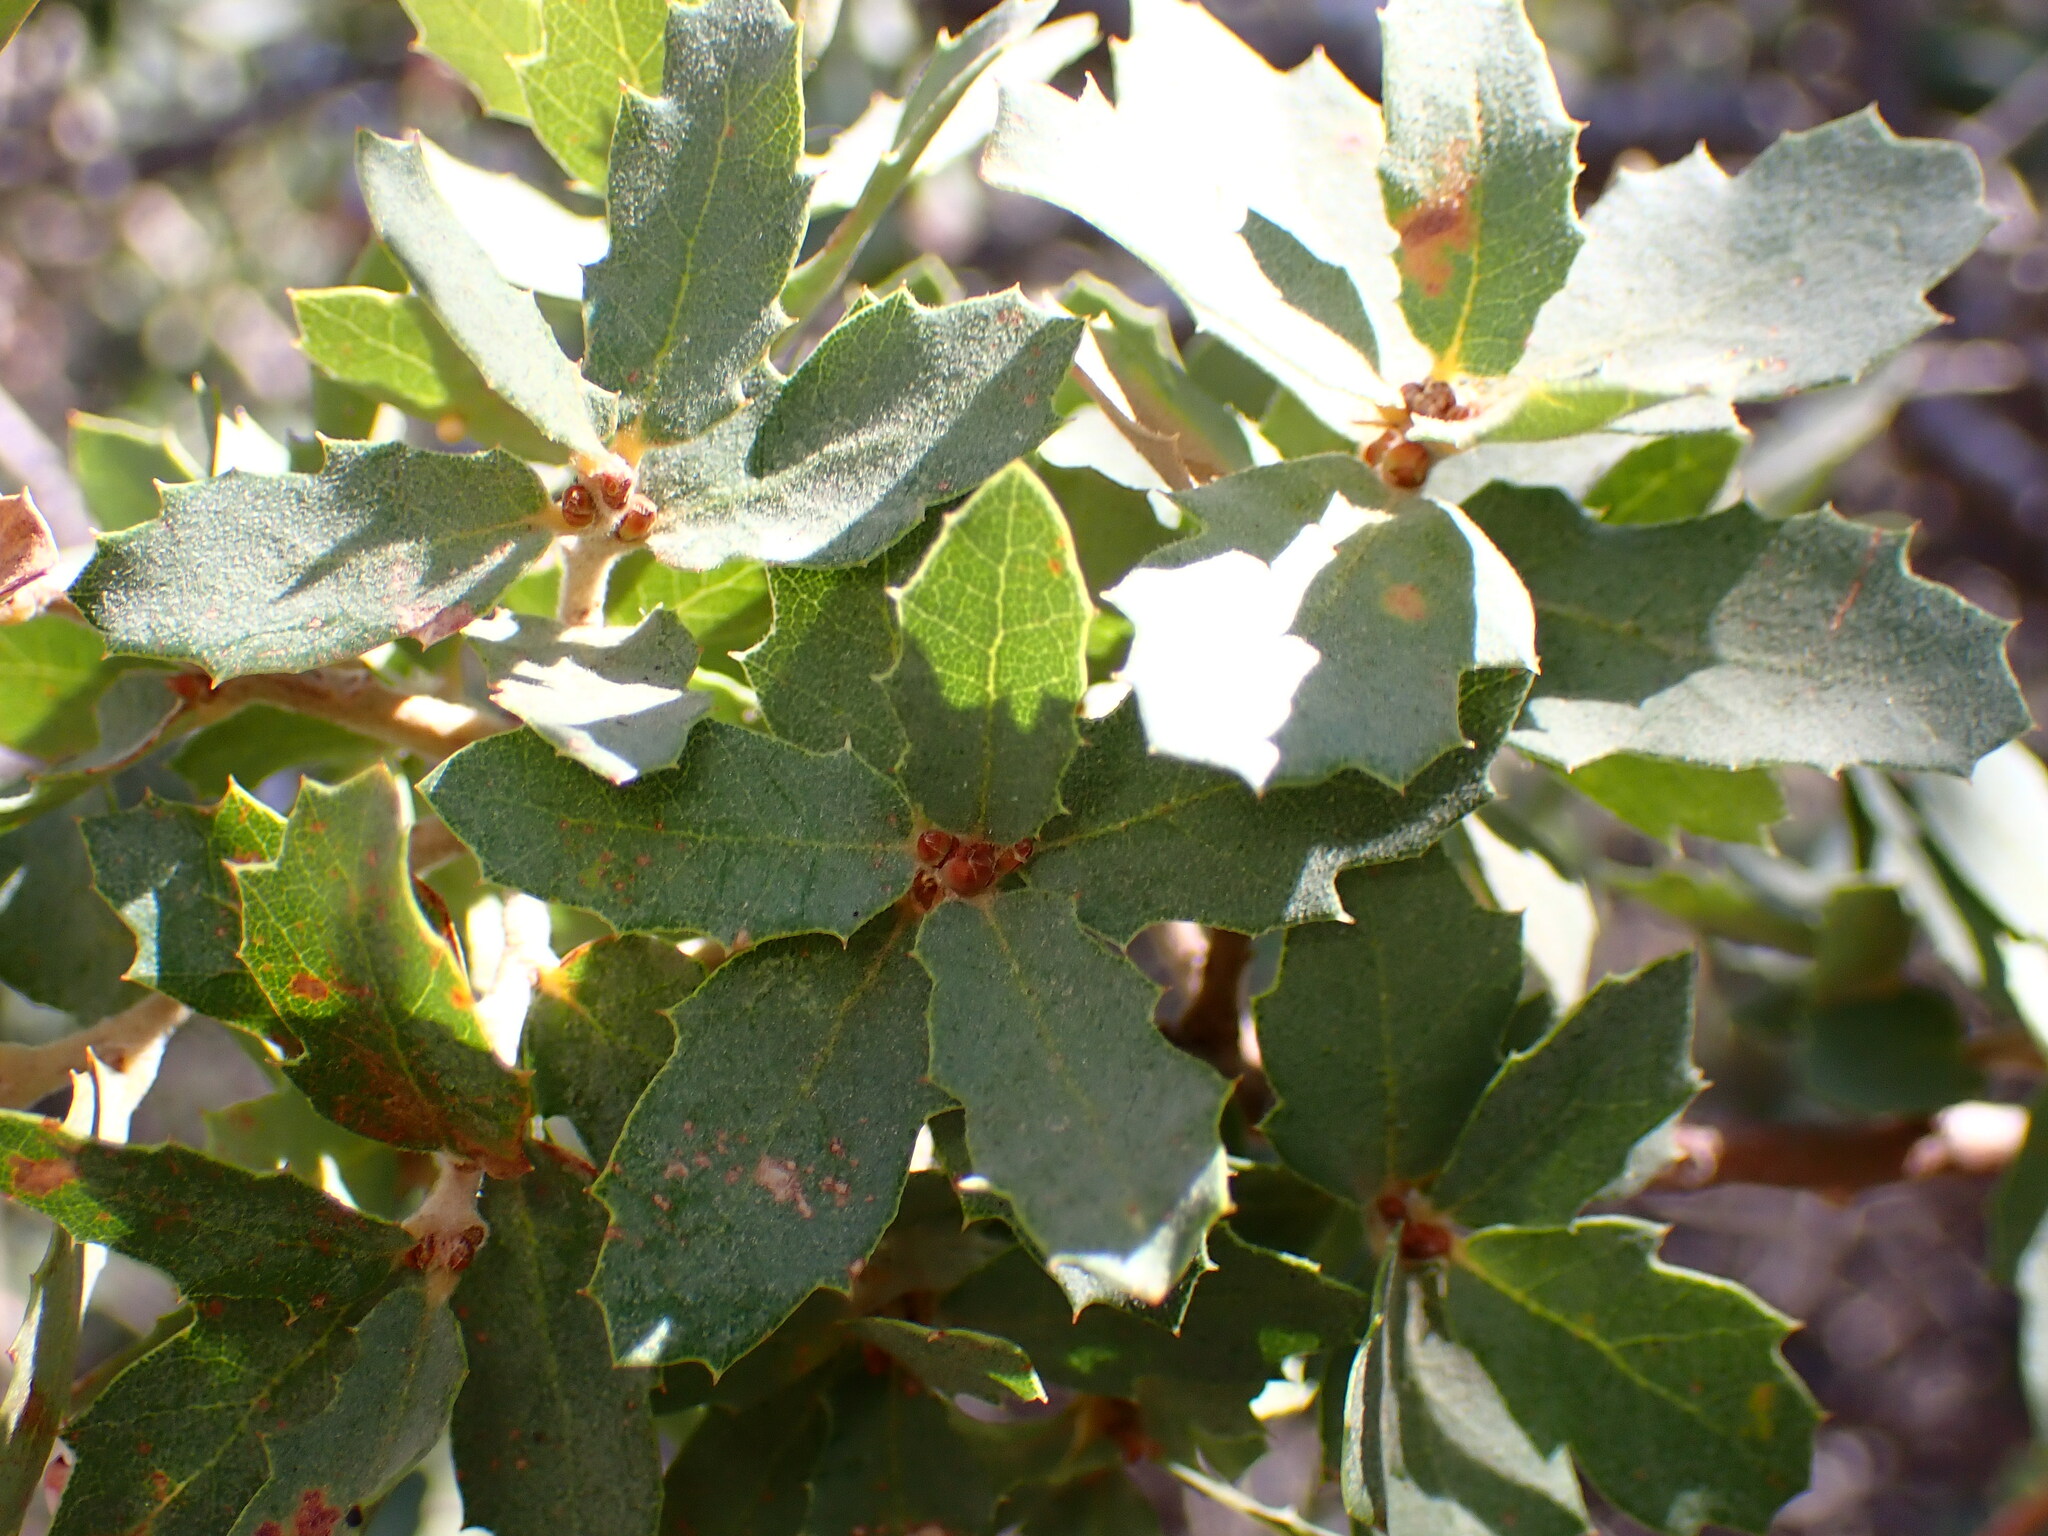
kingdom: Plantae
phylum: Tracheophyta
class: Magnoliopsida
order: Fagales
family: Fagaceae
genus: Quercus
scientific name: Quercus john-tuckeri
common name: Tucker's oak
